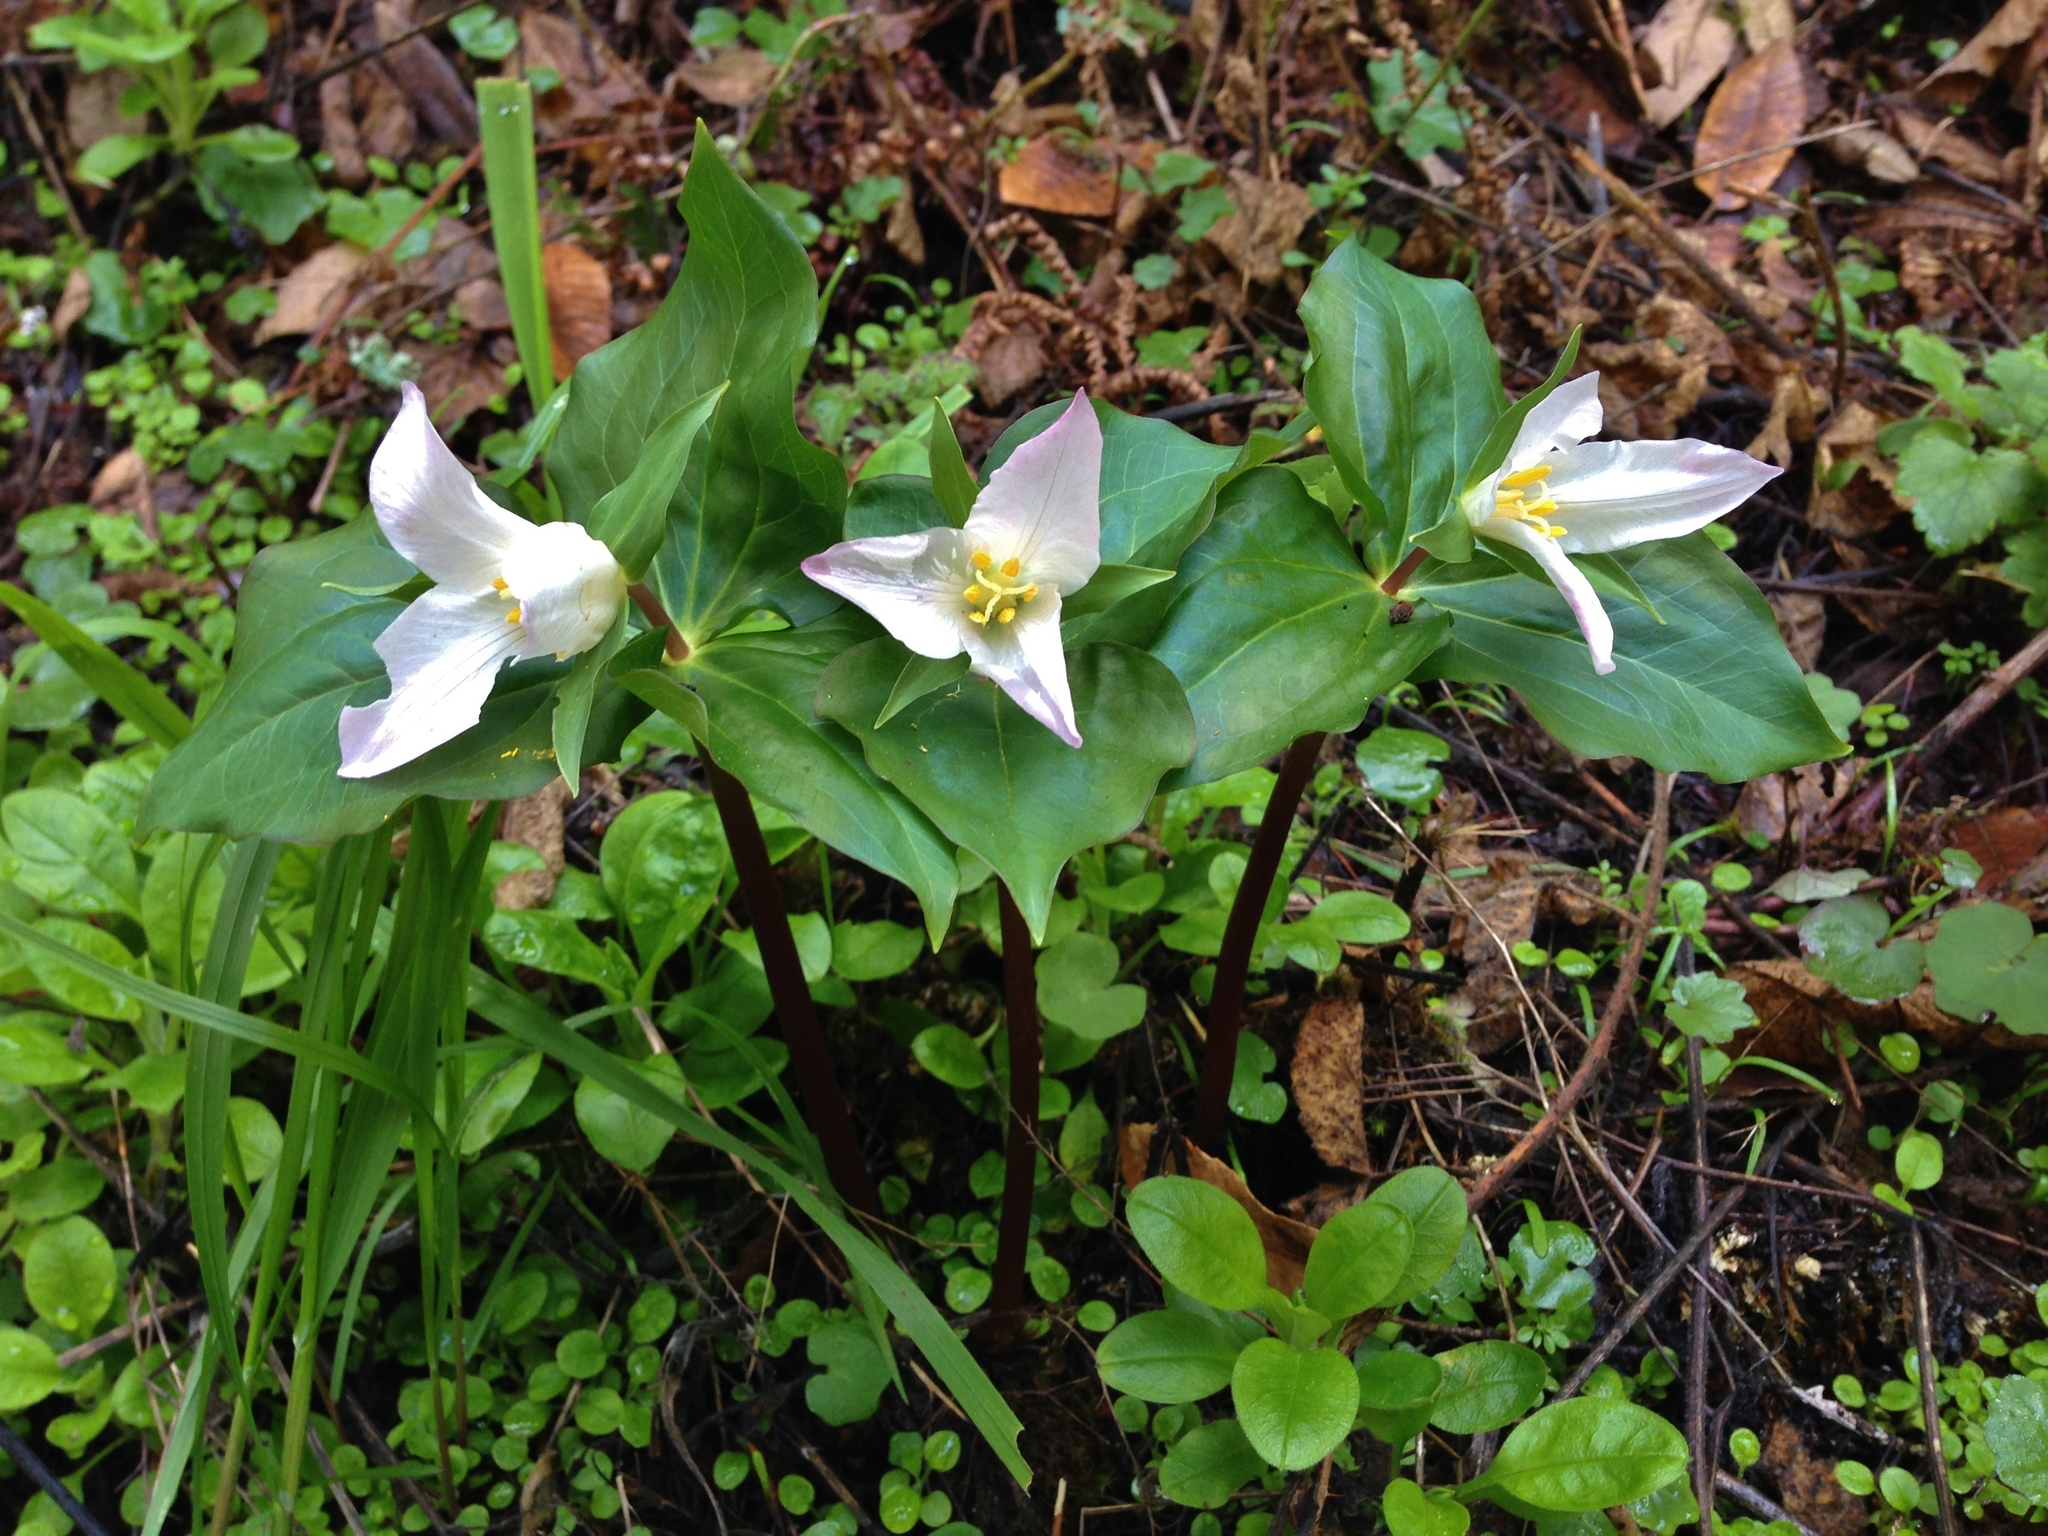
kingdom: Plantae
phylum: Tracheophyta
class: Liliopsida
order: Liliales
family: Melanthiaceae
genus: Trillium
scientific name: Trillium ovatum
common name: Pacific trillium
